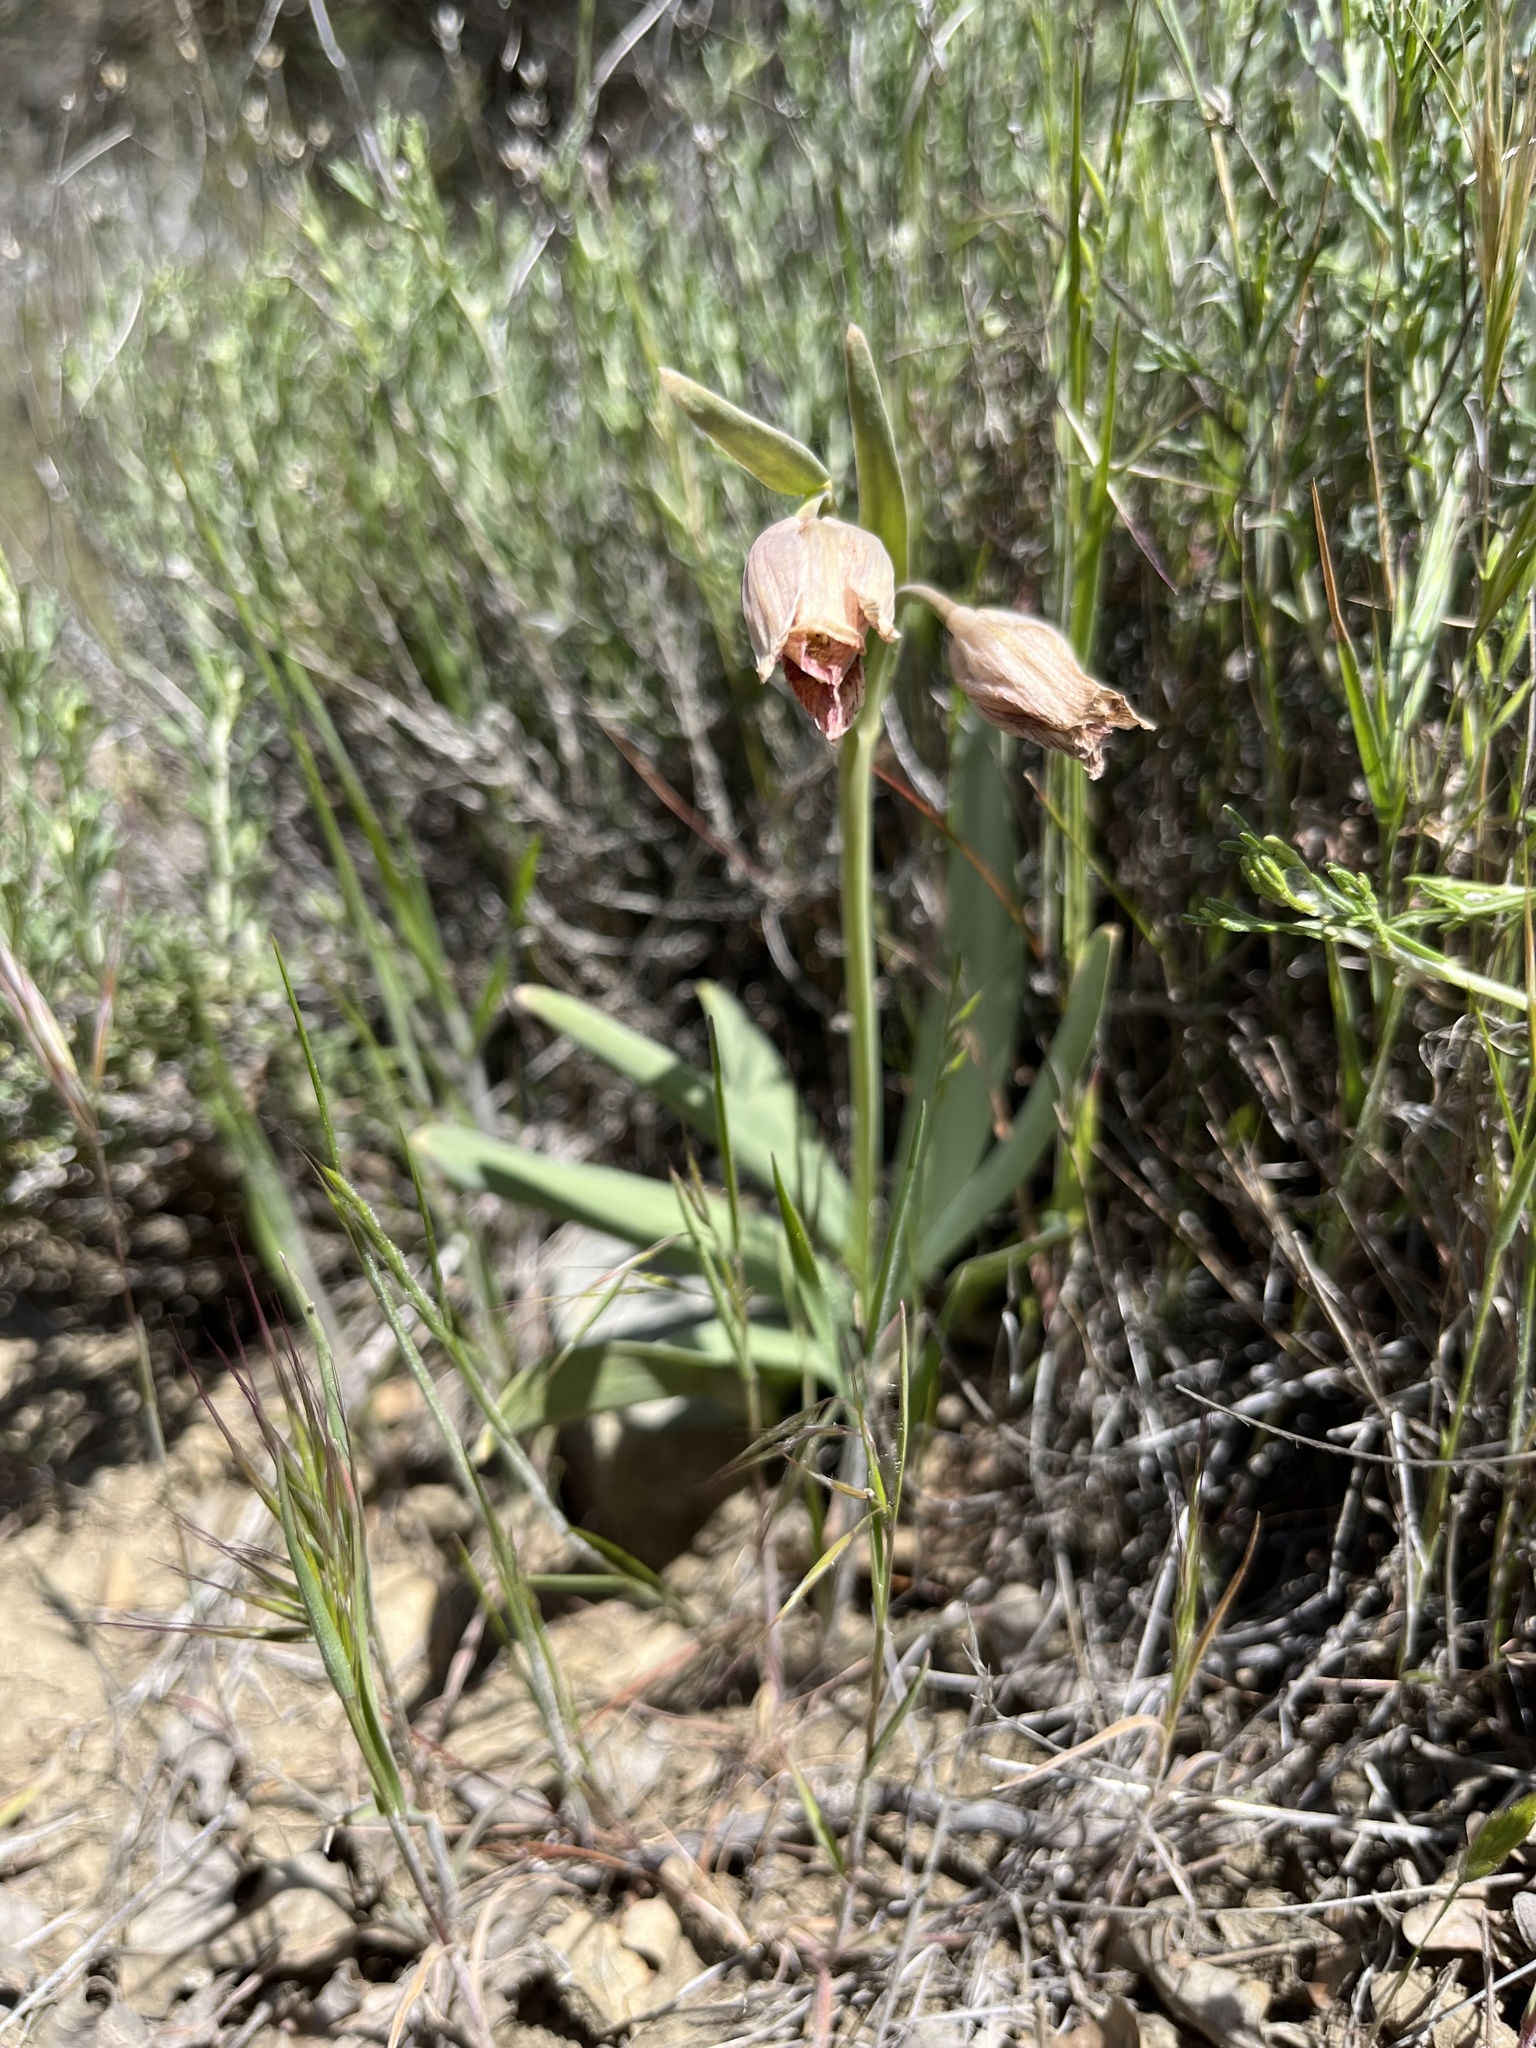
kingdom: Plantae
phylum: Tracheophyta
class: Liliopsida
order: Liliales
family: Liliaceae
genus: Fritillaria
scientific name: Fritillaria agrestis
